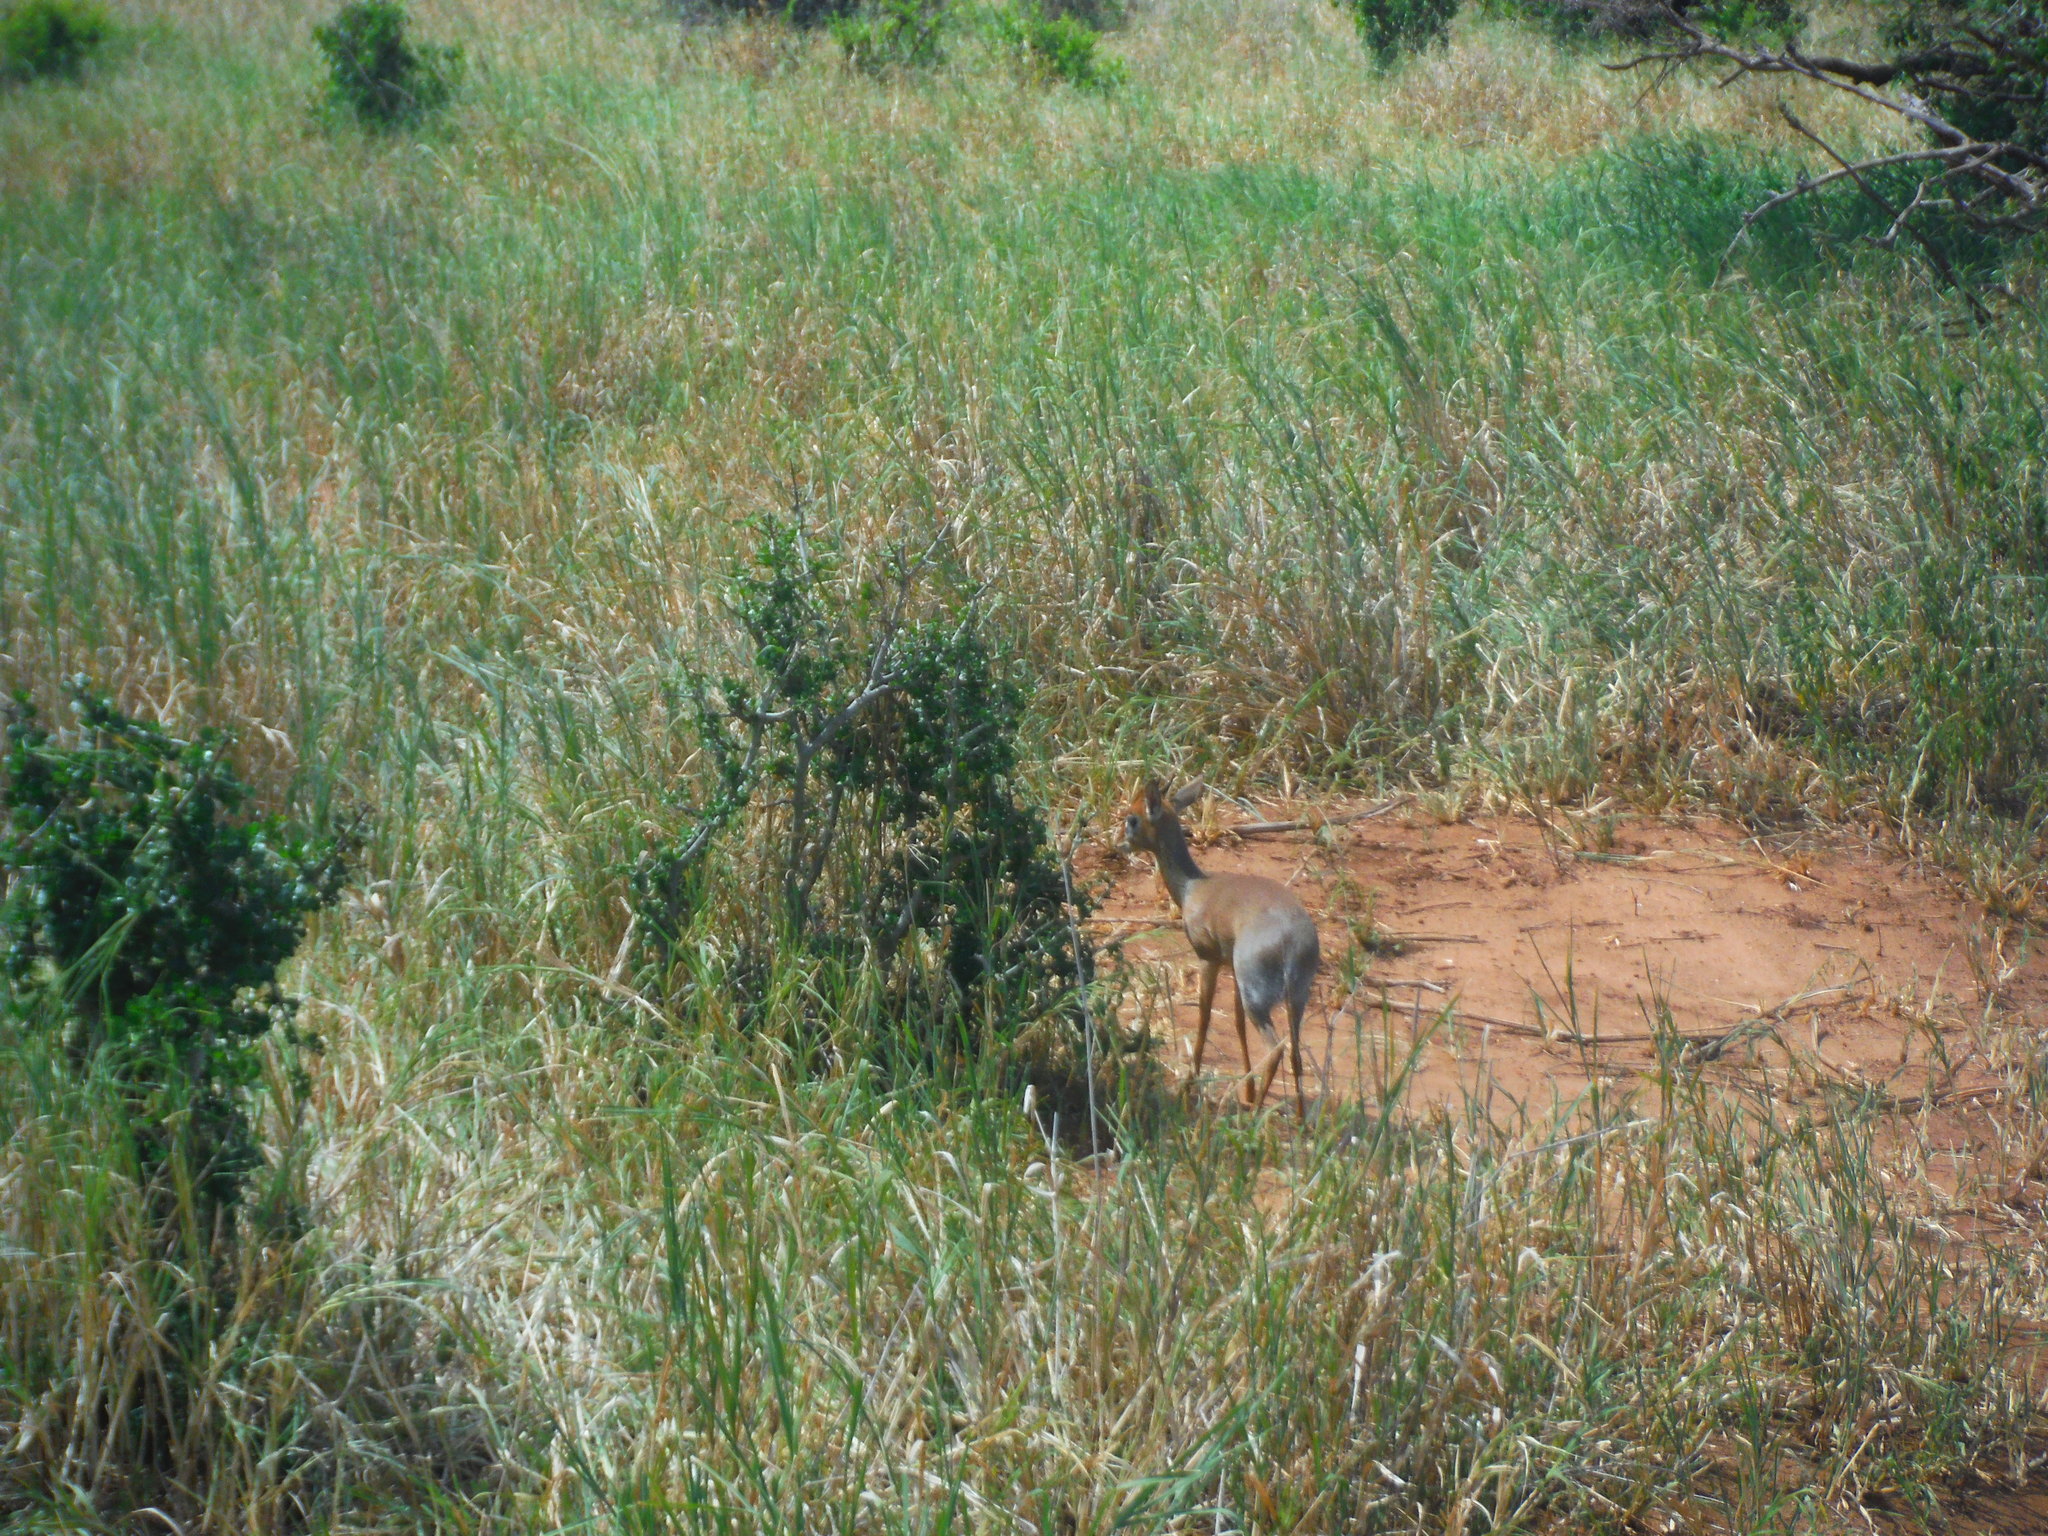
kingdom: Animalia
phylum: Chordata
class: Mammalia
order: Artiodactyla
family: Bovidae
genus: Madoqua
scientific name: Madoqua
